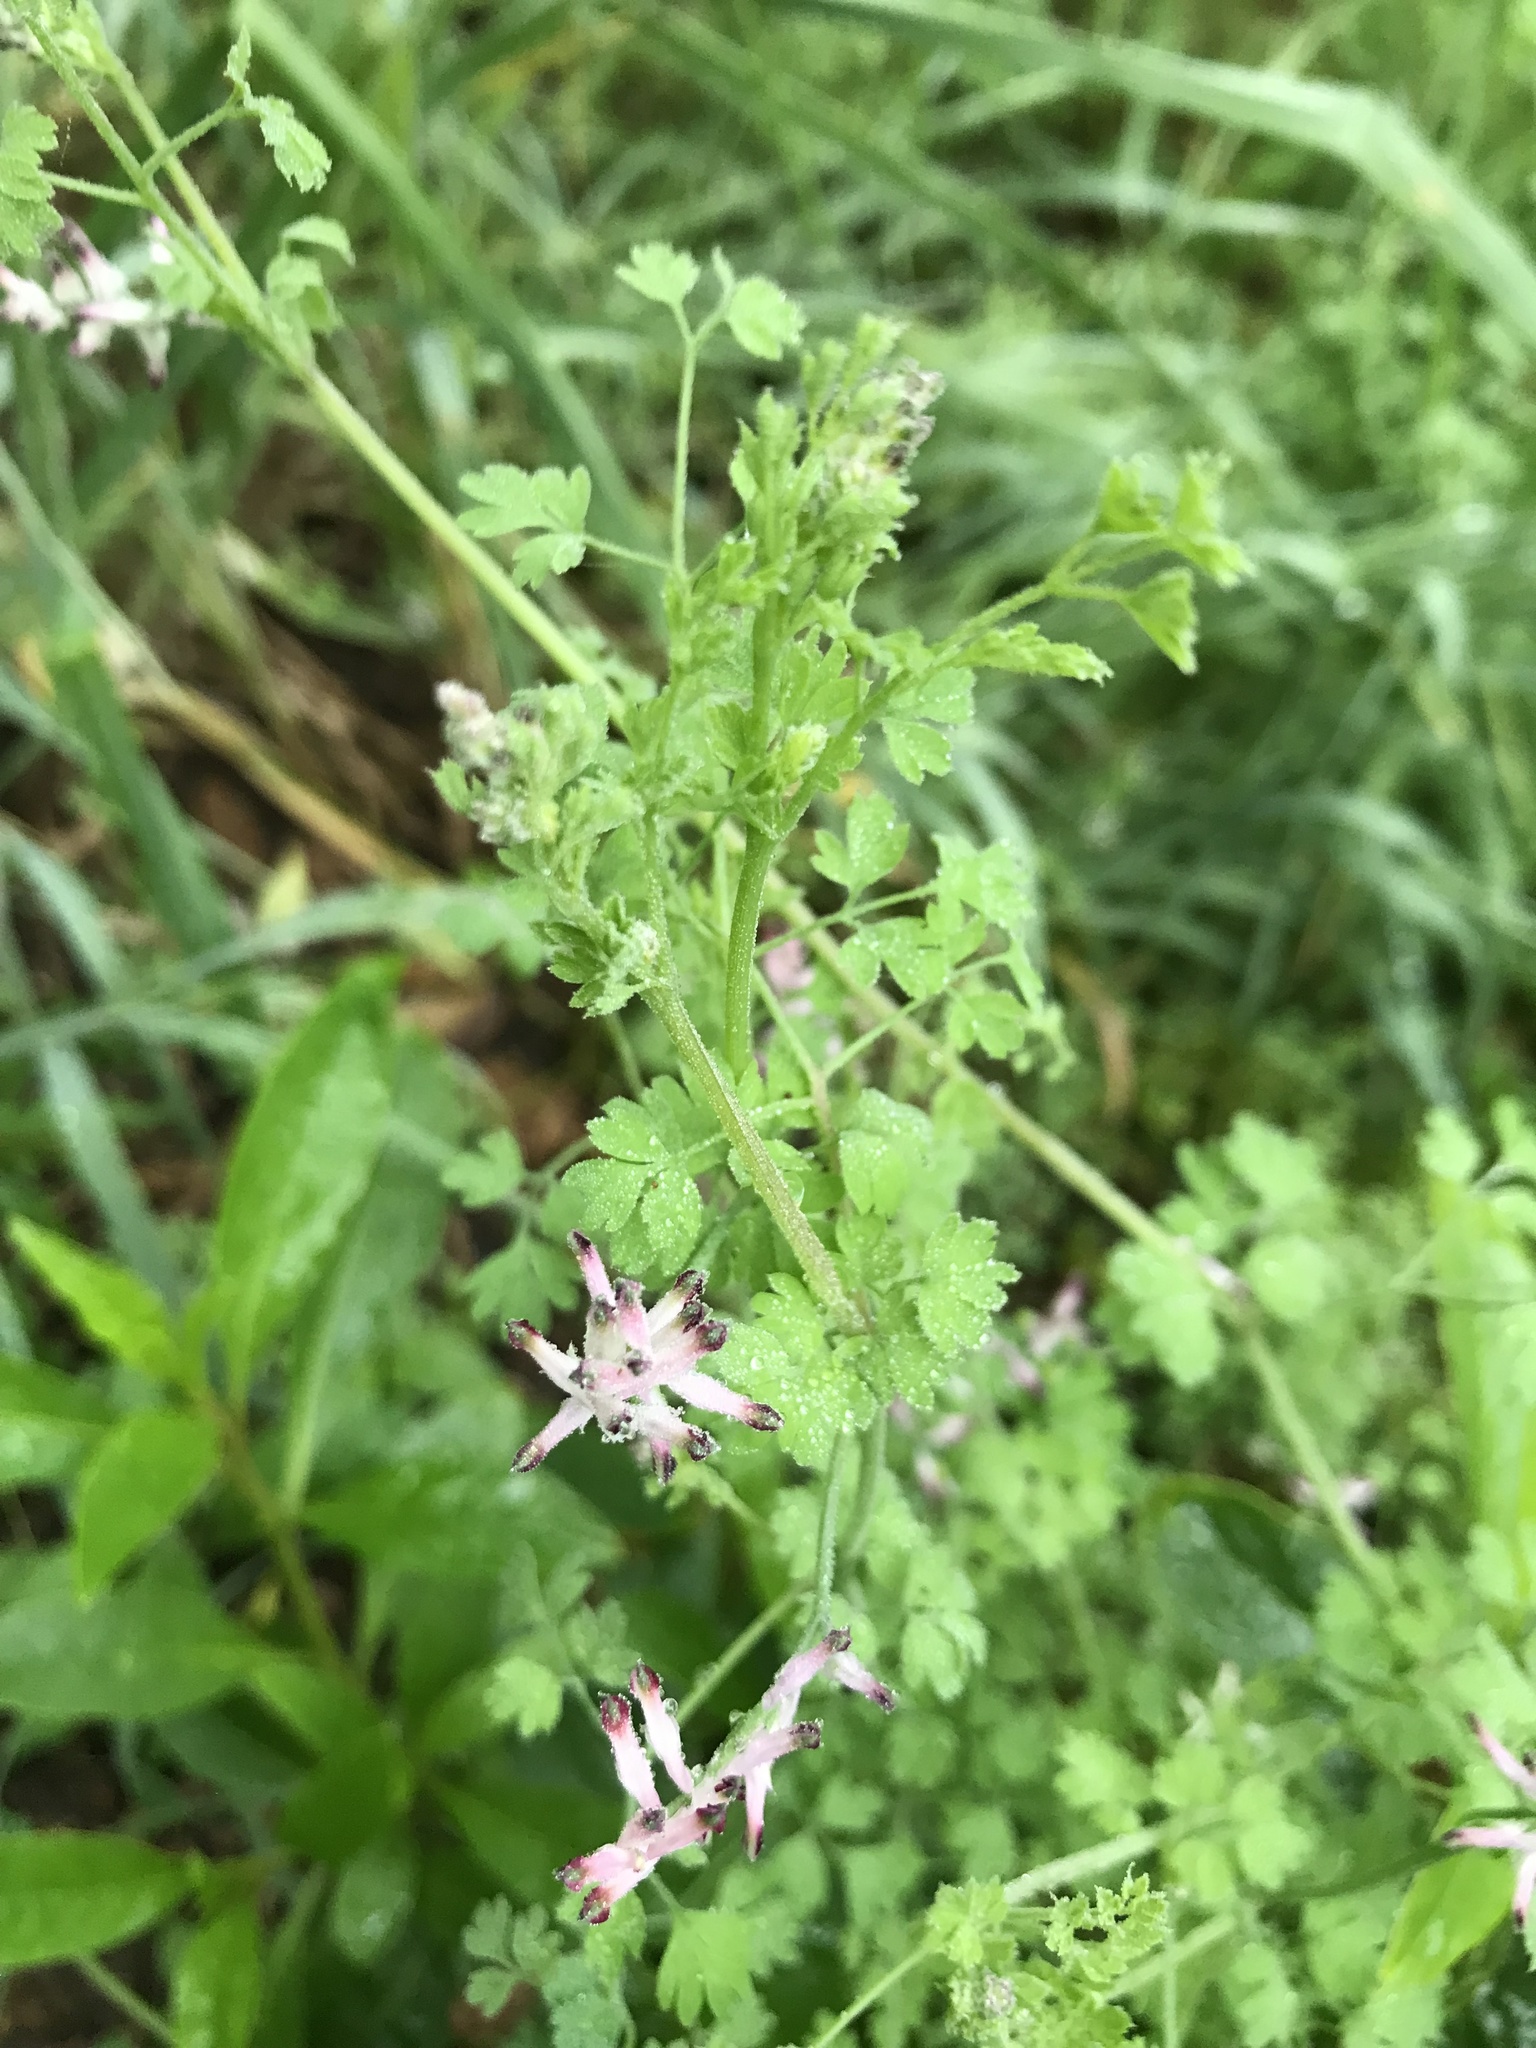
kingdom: Plantae
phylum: Tracheophyta
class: Magnoliopsida
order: Ranunculales
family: Papaveraceae
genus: Fumaria
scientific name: Fumaria capreolata
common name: White ramping-fumitory
